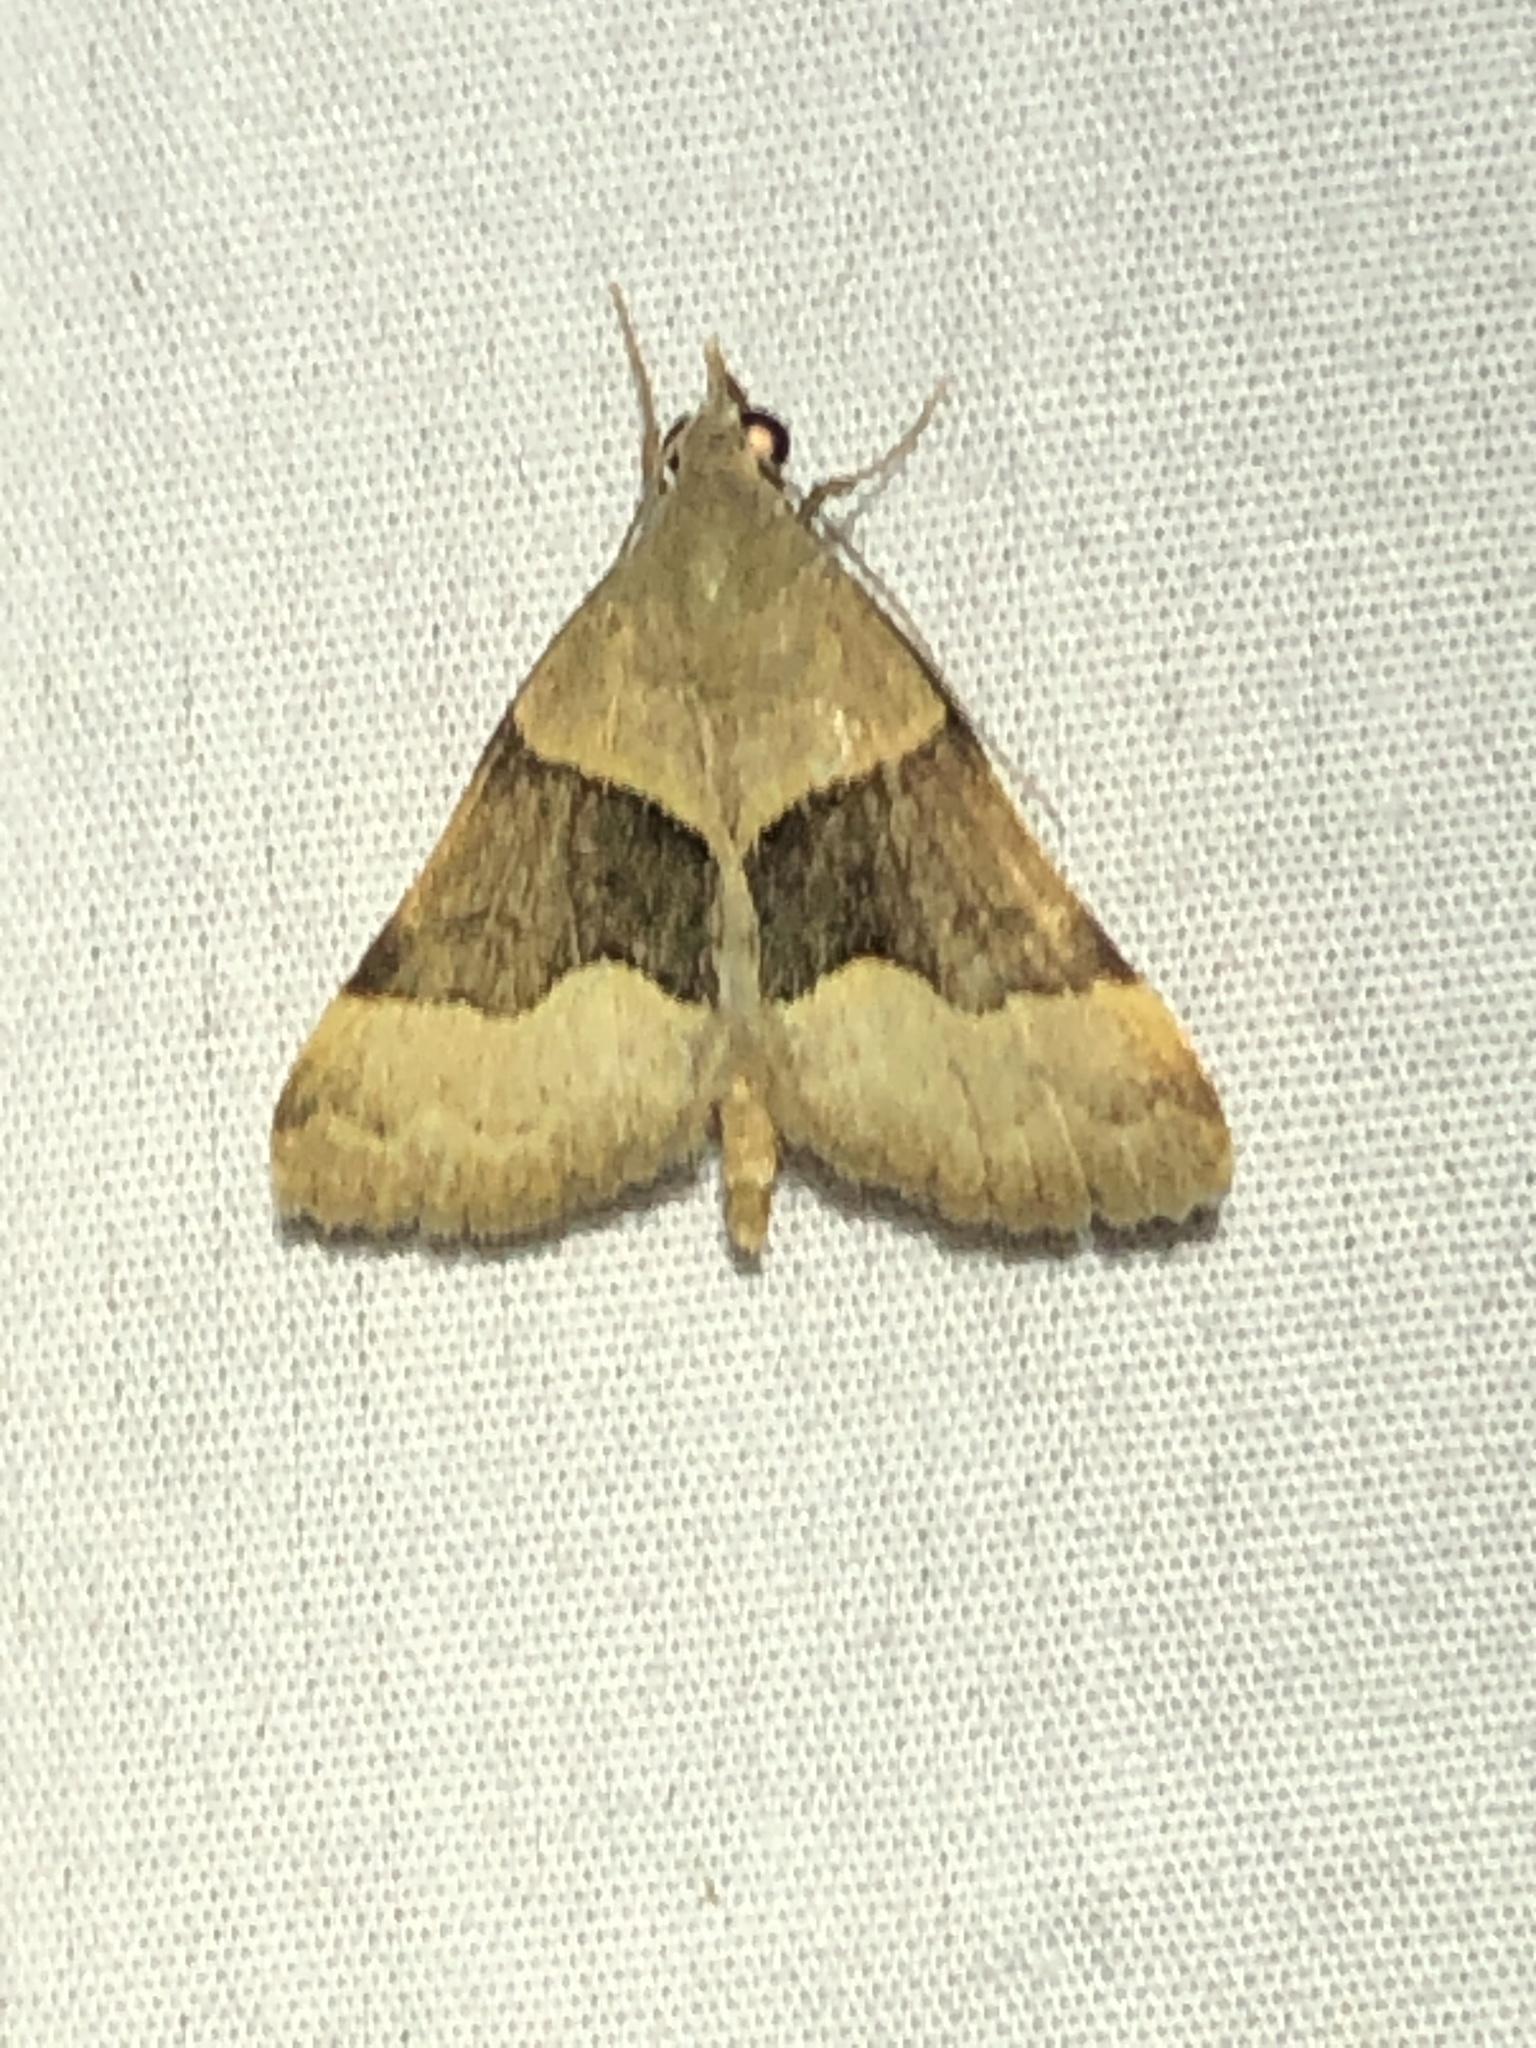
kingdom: Animalia
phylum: Arthropoda
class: Insecta
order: Lepidoptera
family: Erebidae
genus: Hemeroplanis
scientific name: Hemeroplanis incusalis
